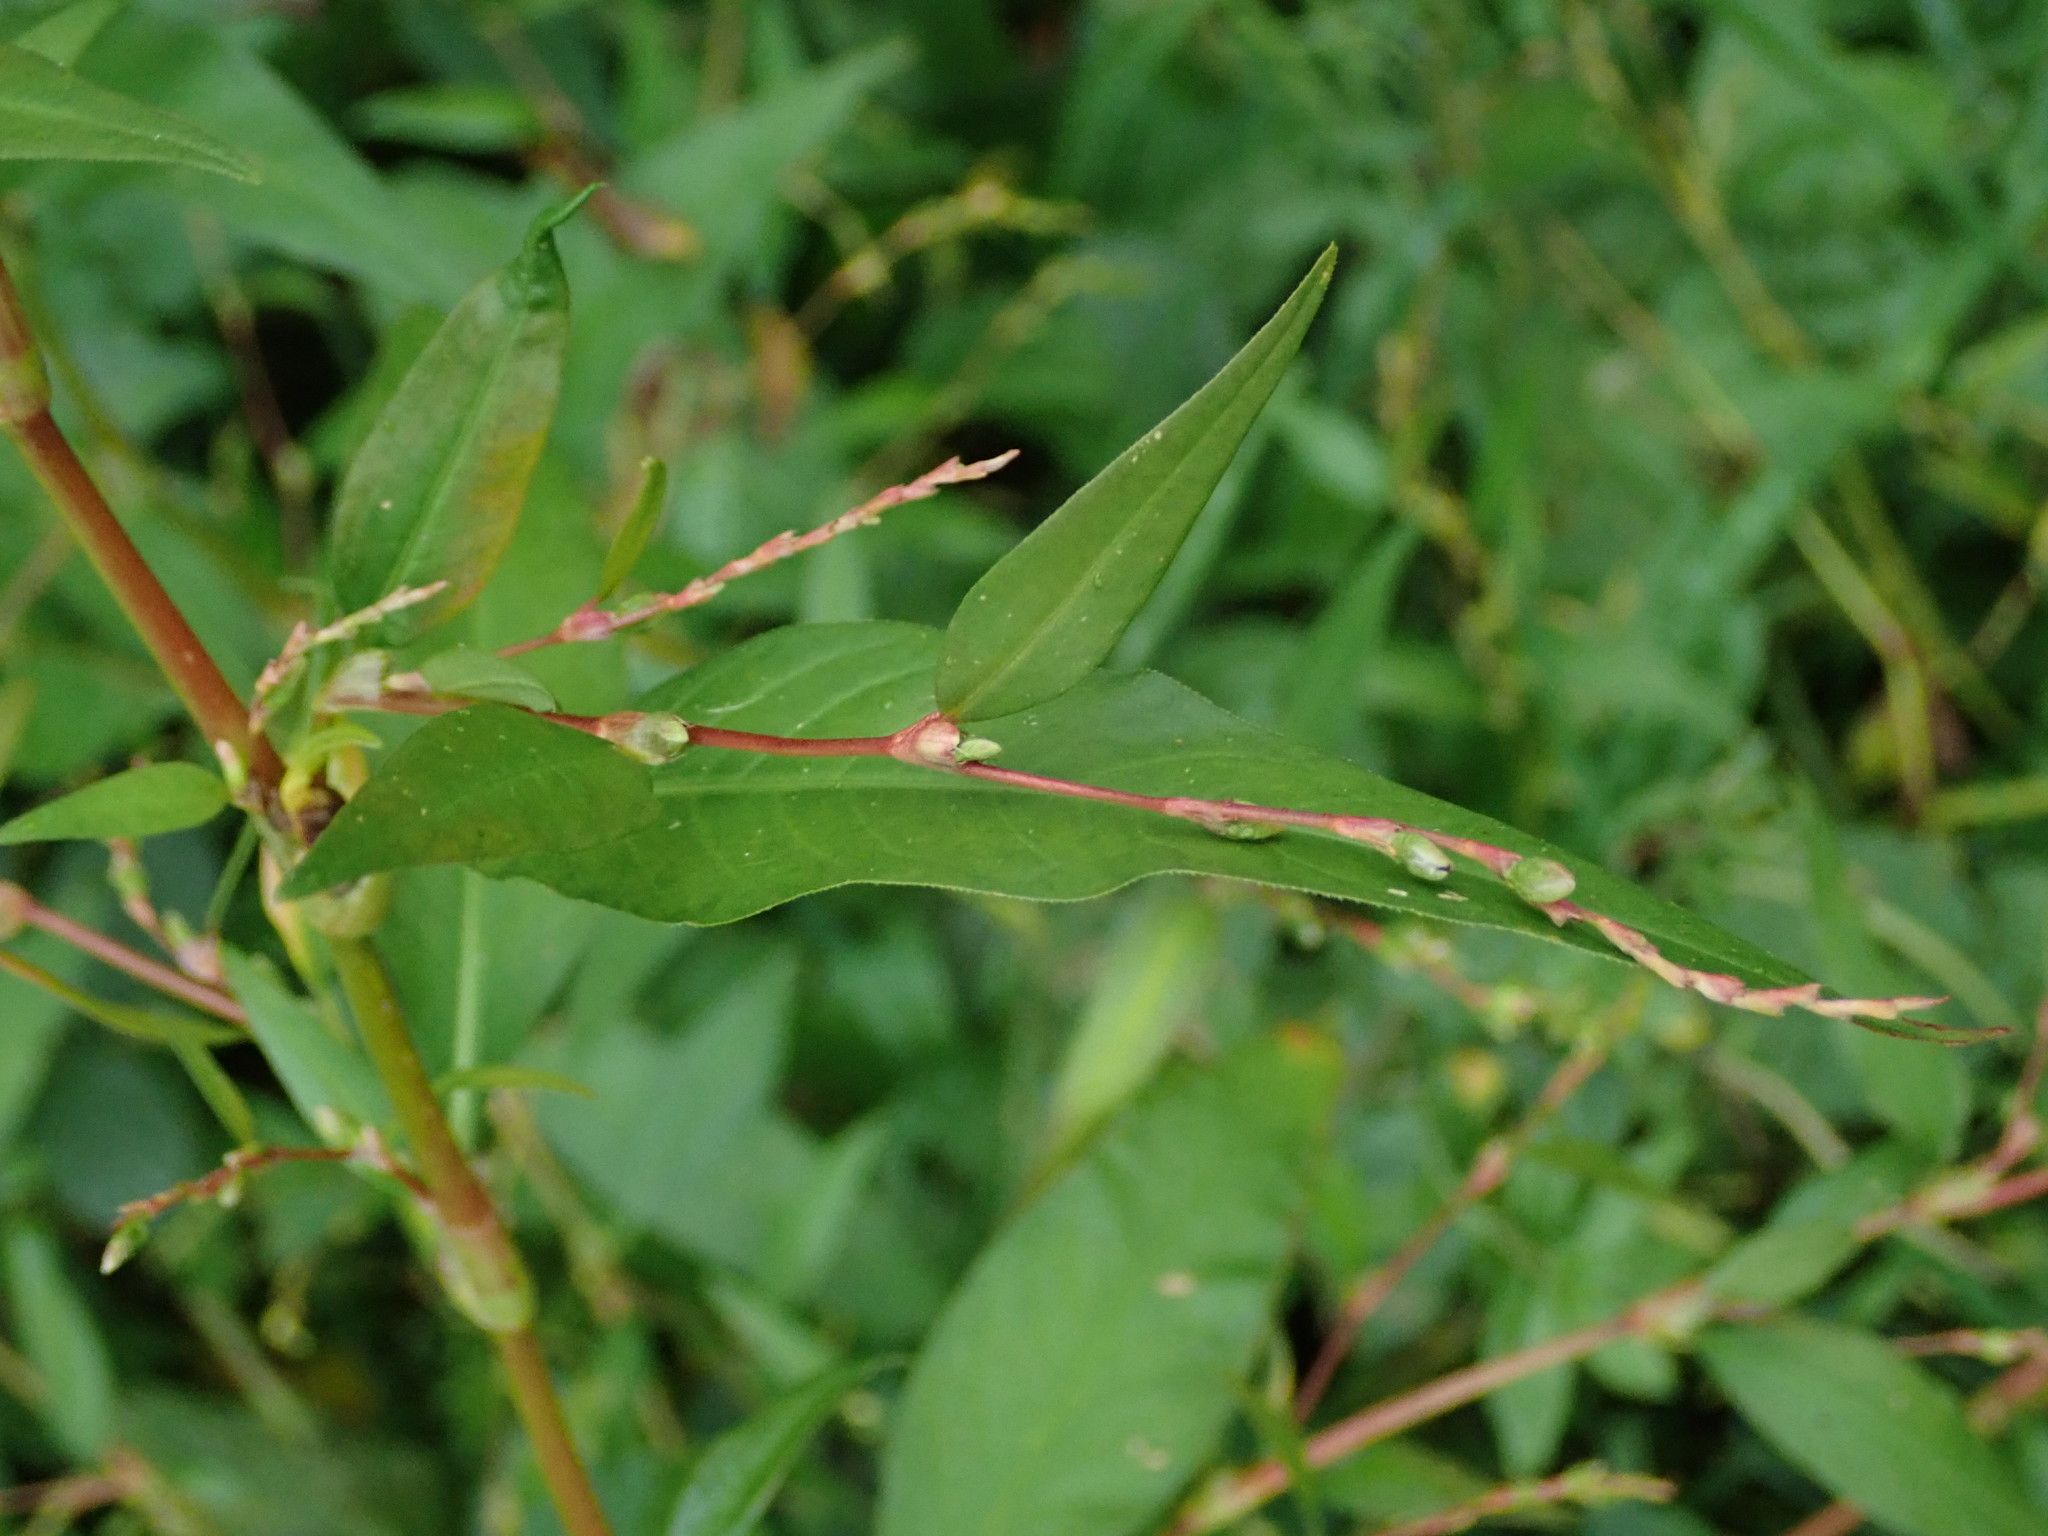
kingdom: Plantae
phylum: Tracheophyta
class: Magnoliopsida
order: Caryophyllales
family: Polygonaceae
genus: Persicaria
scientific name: Persicaria hydropiper
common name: Water-pepper
